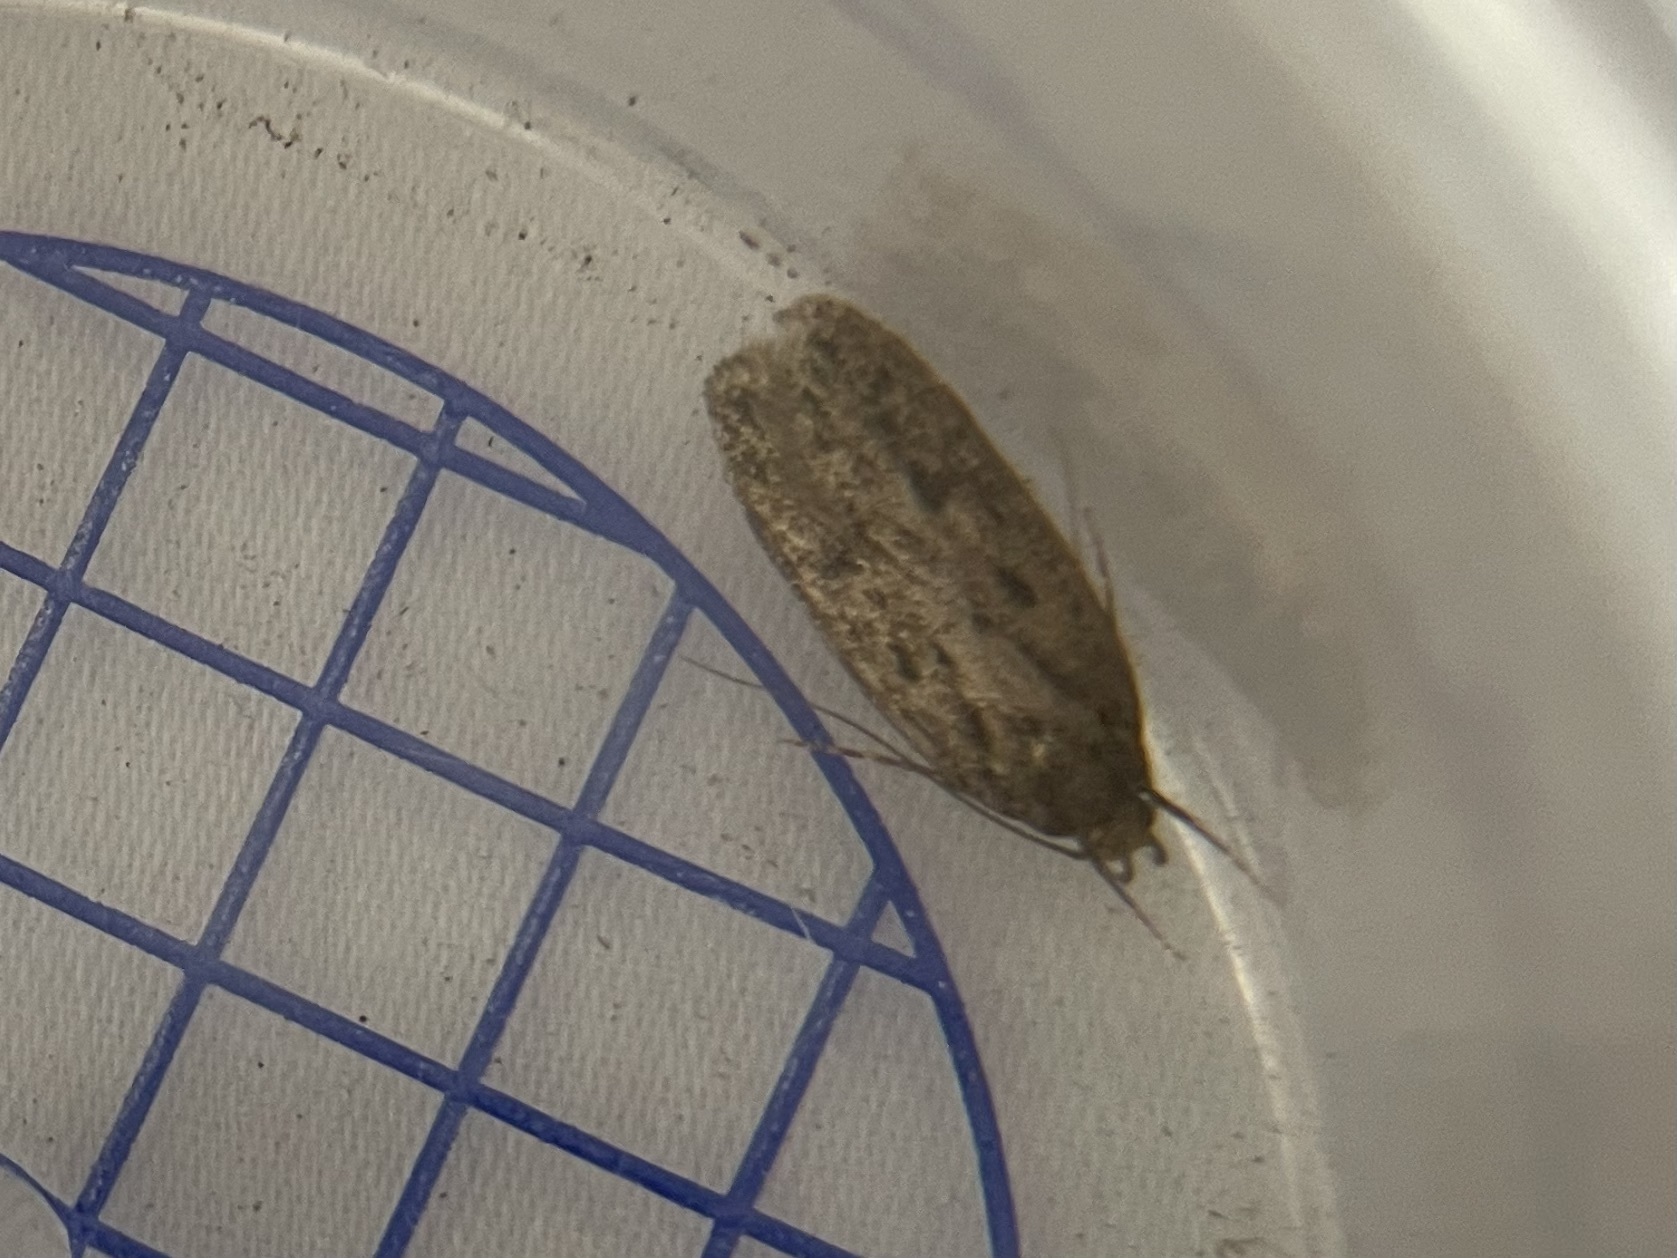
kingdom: Animalia
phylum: Arthropoda
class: Insecta
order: Lepidoptera
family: Oecophoridae
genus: Hofmannophila
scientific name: Hofmannophila pseudospretella
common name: Brown house moth
